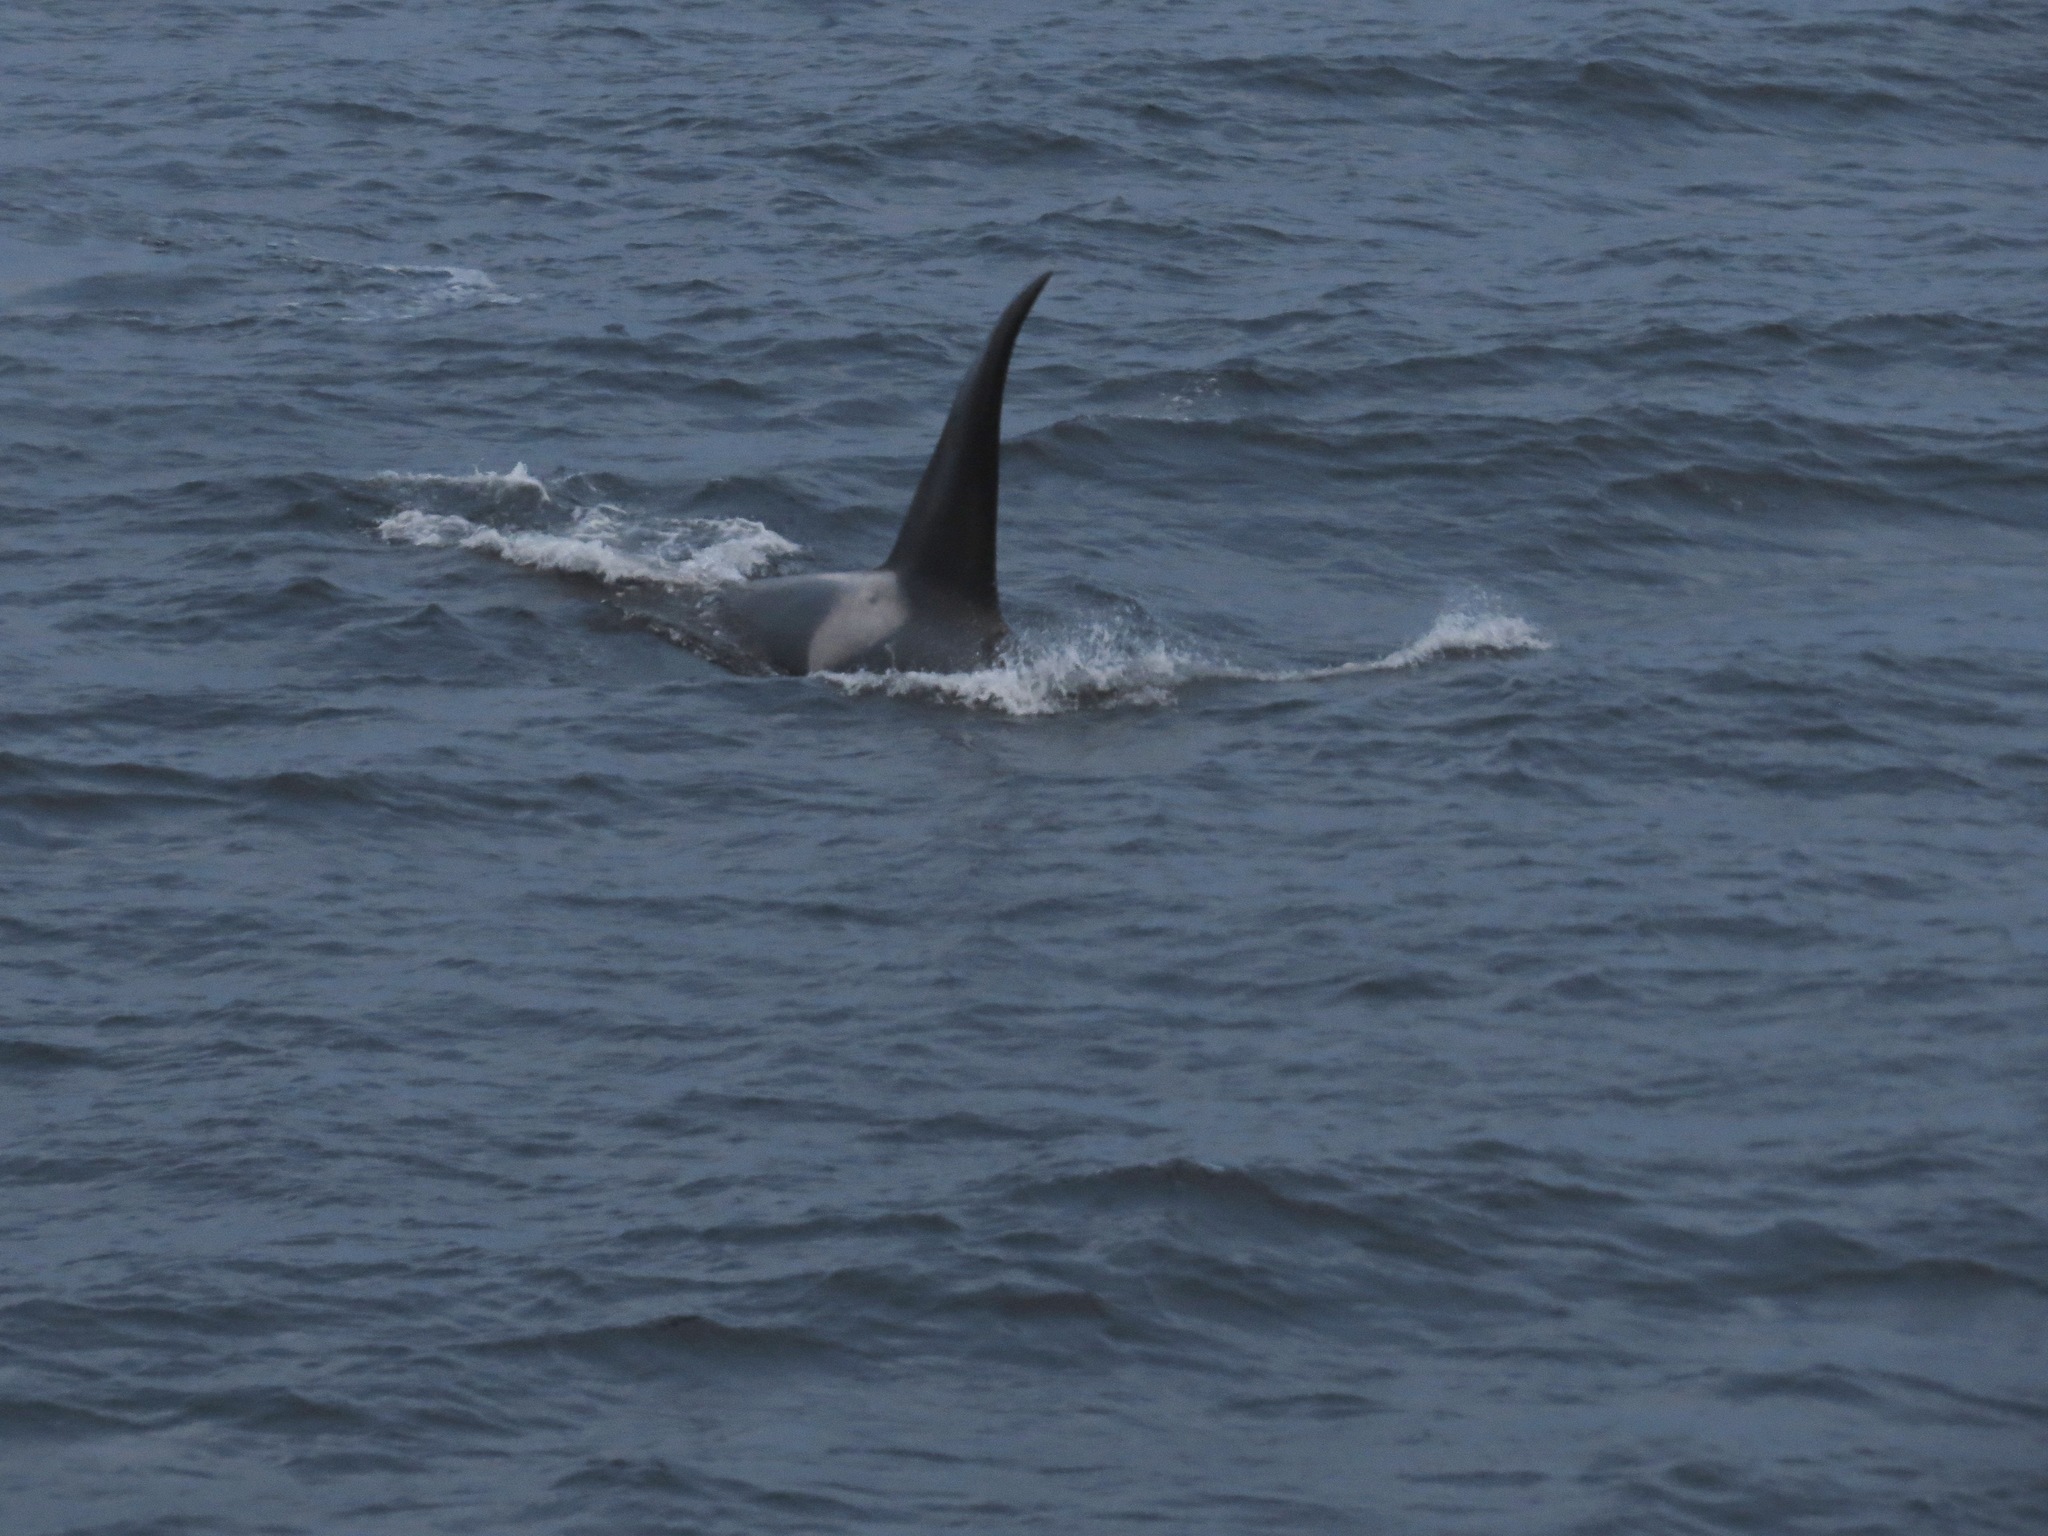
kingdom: Animalia
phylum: Chordata
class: Mammalia
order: Cetacea
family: Delphinidae
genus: Orcinus
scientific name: Orcinus orca
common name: Killer whale
